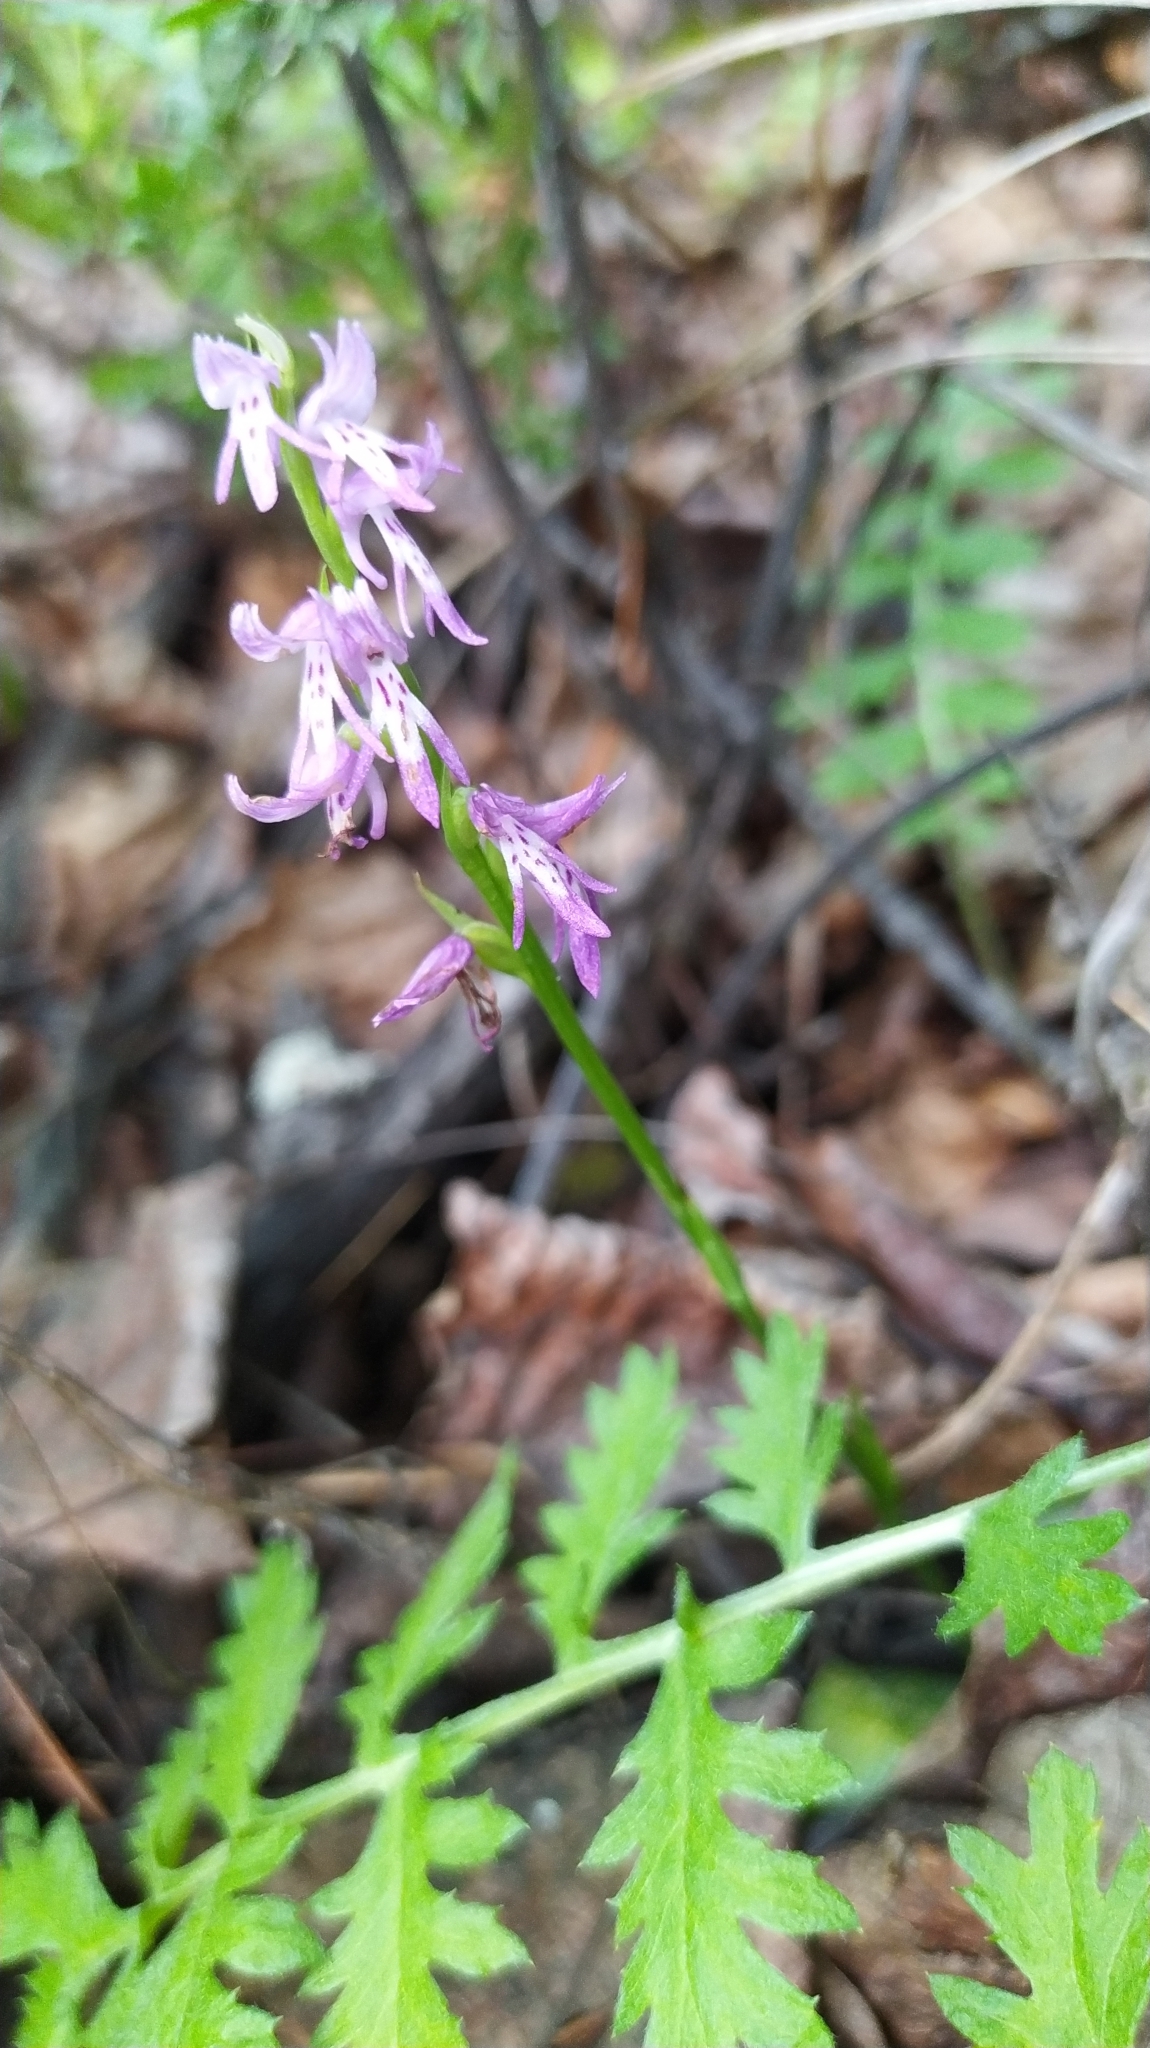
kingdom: Plantae
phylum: Tracheophyta
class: Liliopsida
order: Asparagales
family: Orchidaceae
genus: Hemipilia
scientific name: Hemipilia cucullata
